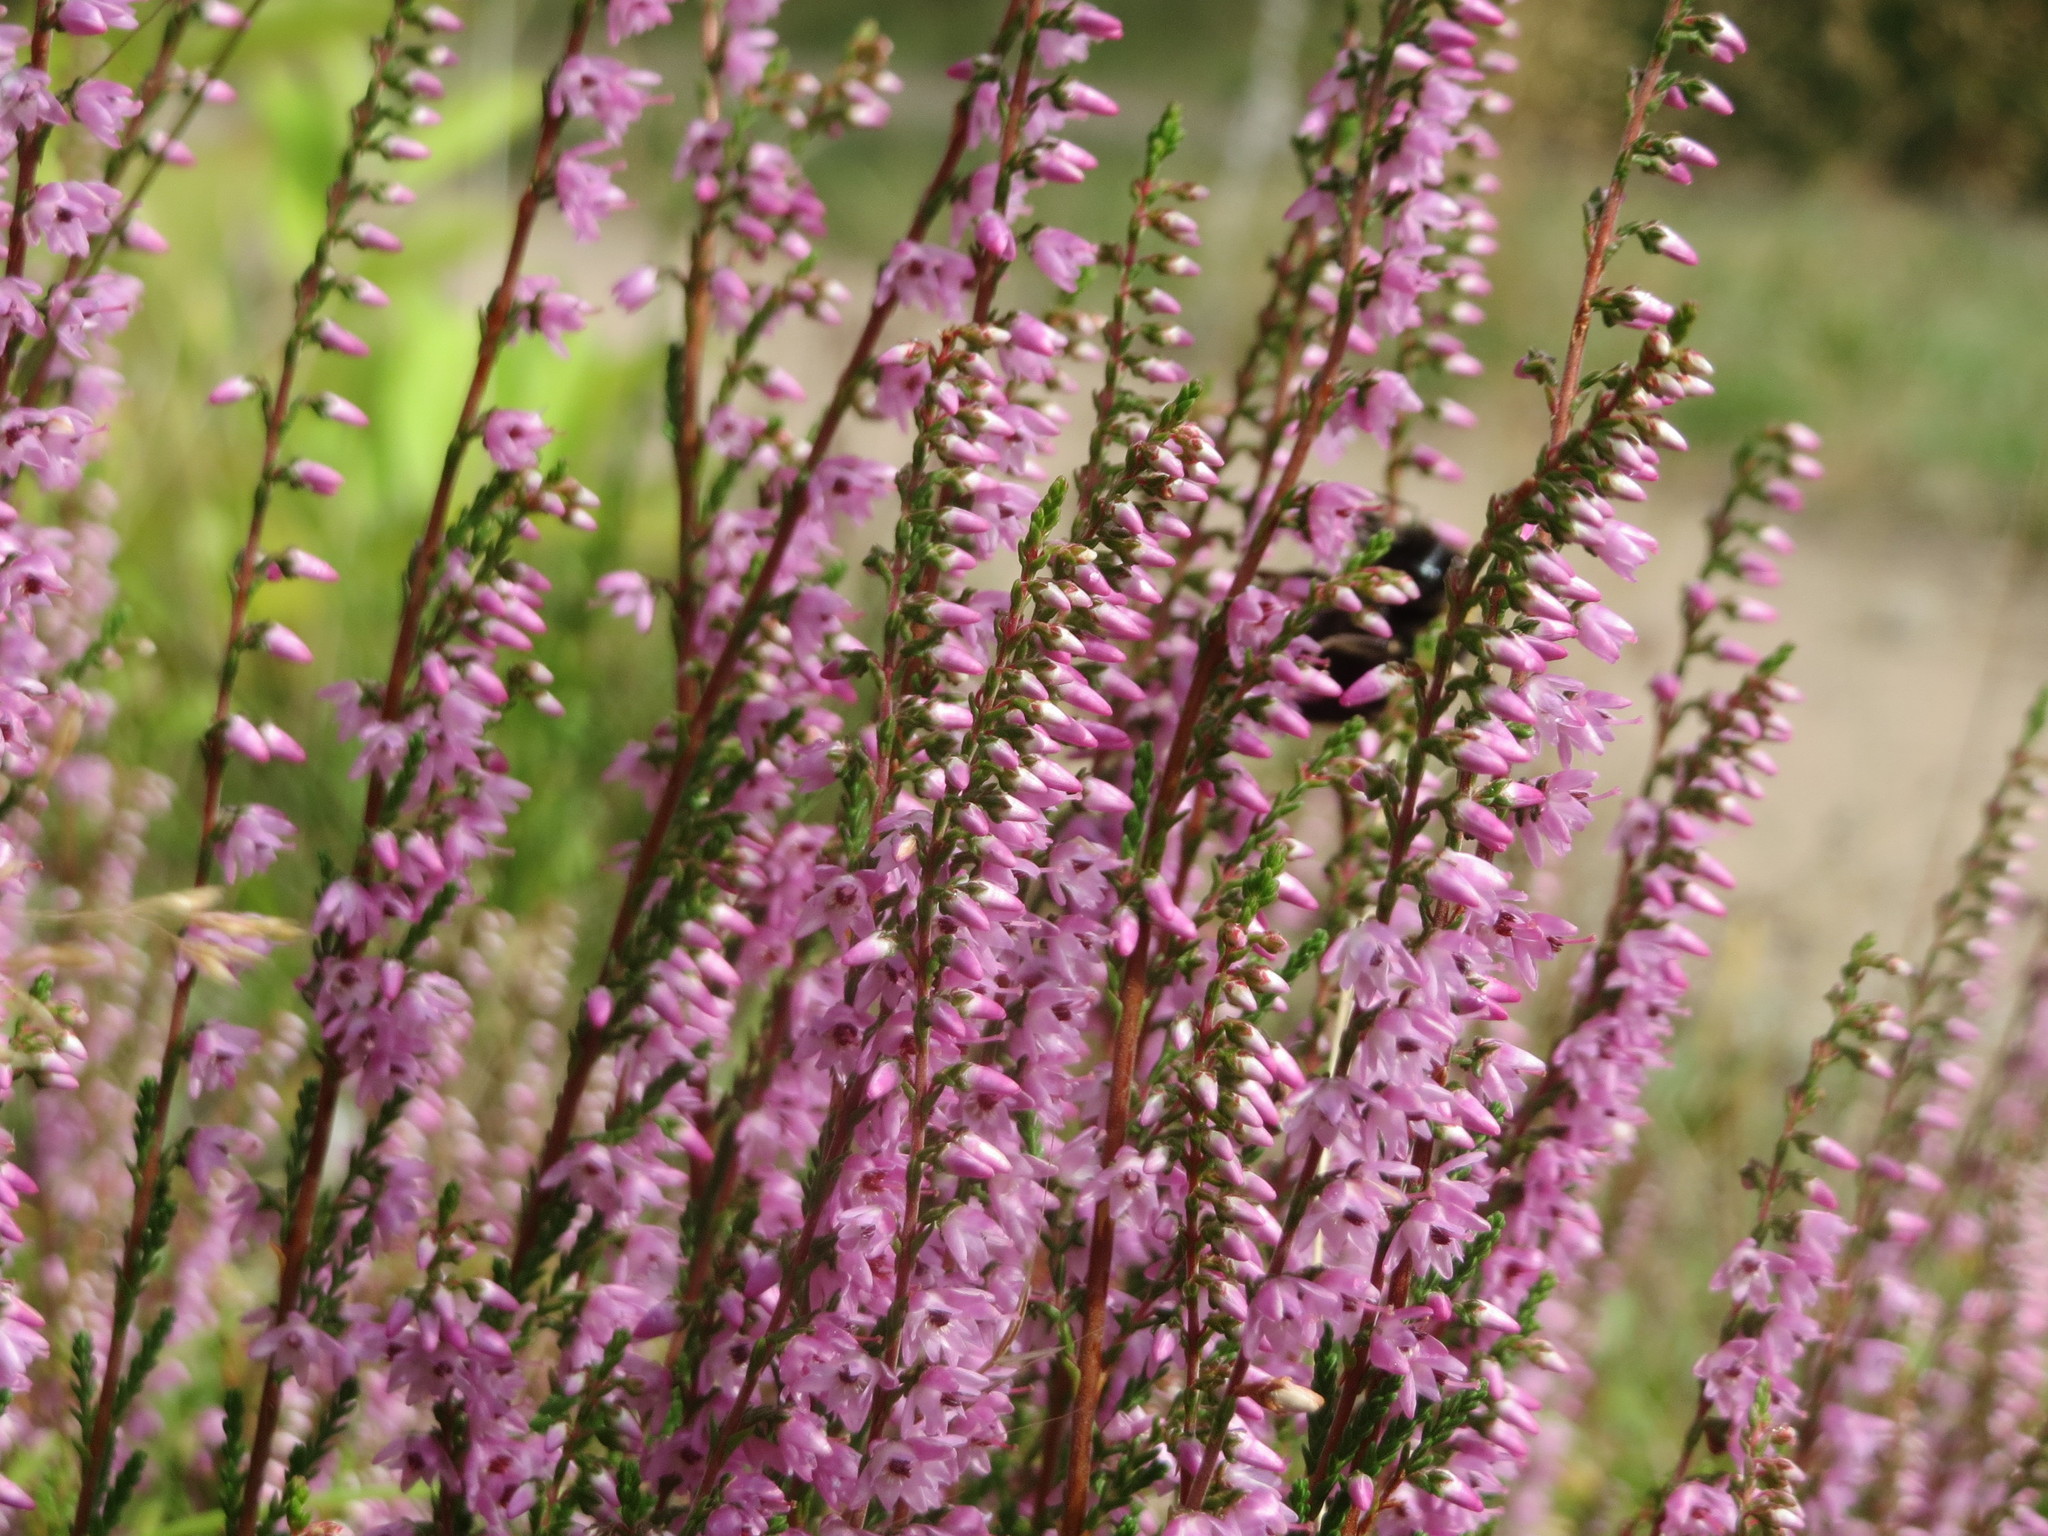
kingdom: Plantae
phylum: Tracheophyta
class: Magnoliopsida
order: Ericales
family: Ericaceae
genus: Calluna
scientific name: Calluna vulgaris
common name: Heather
